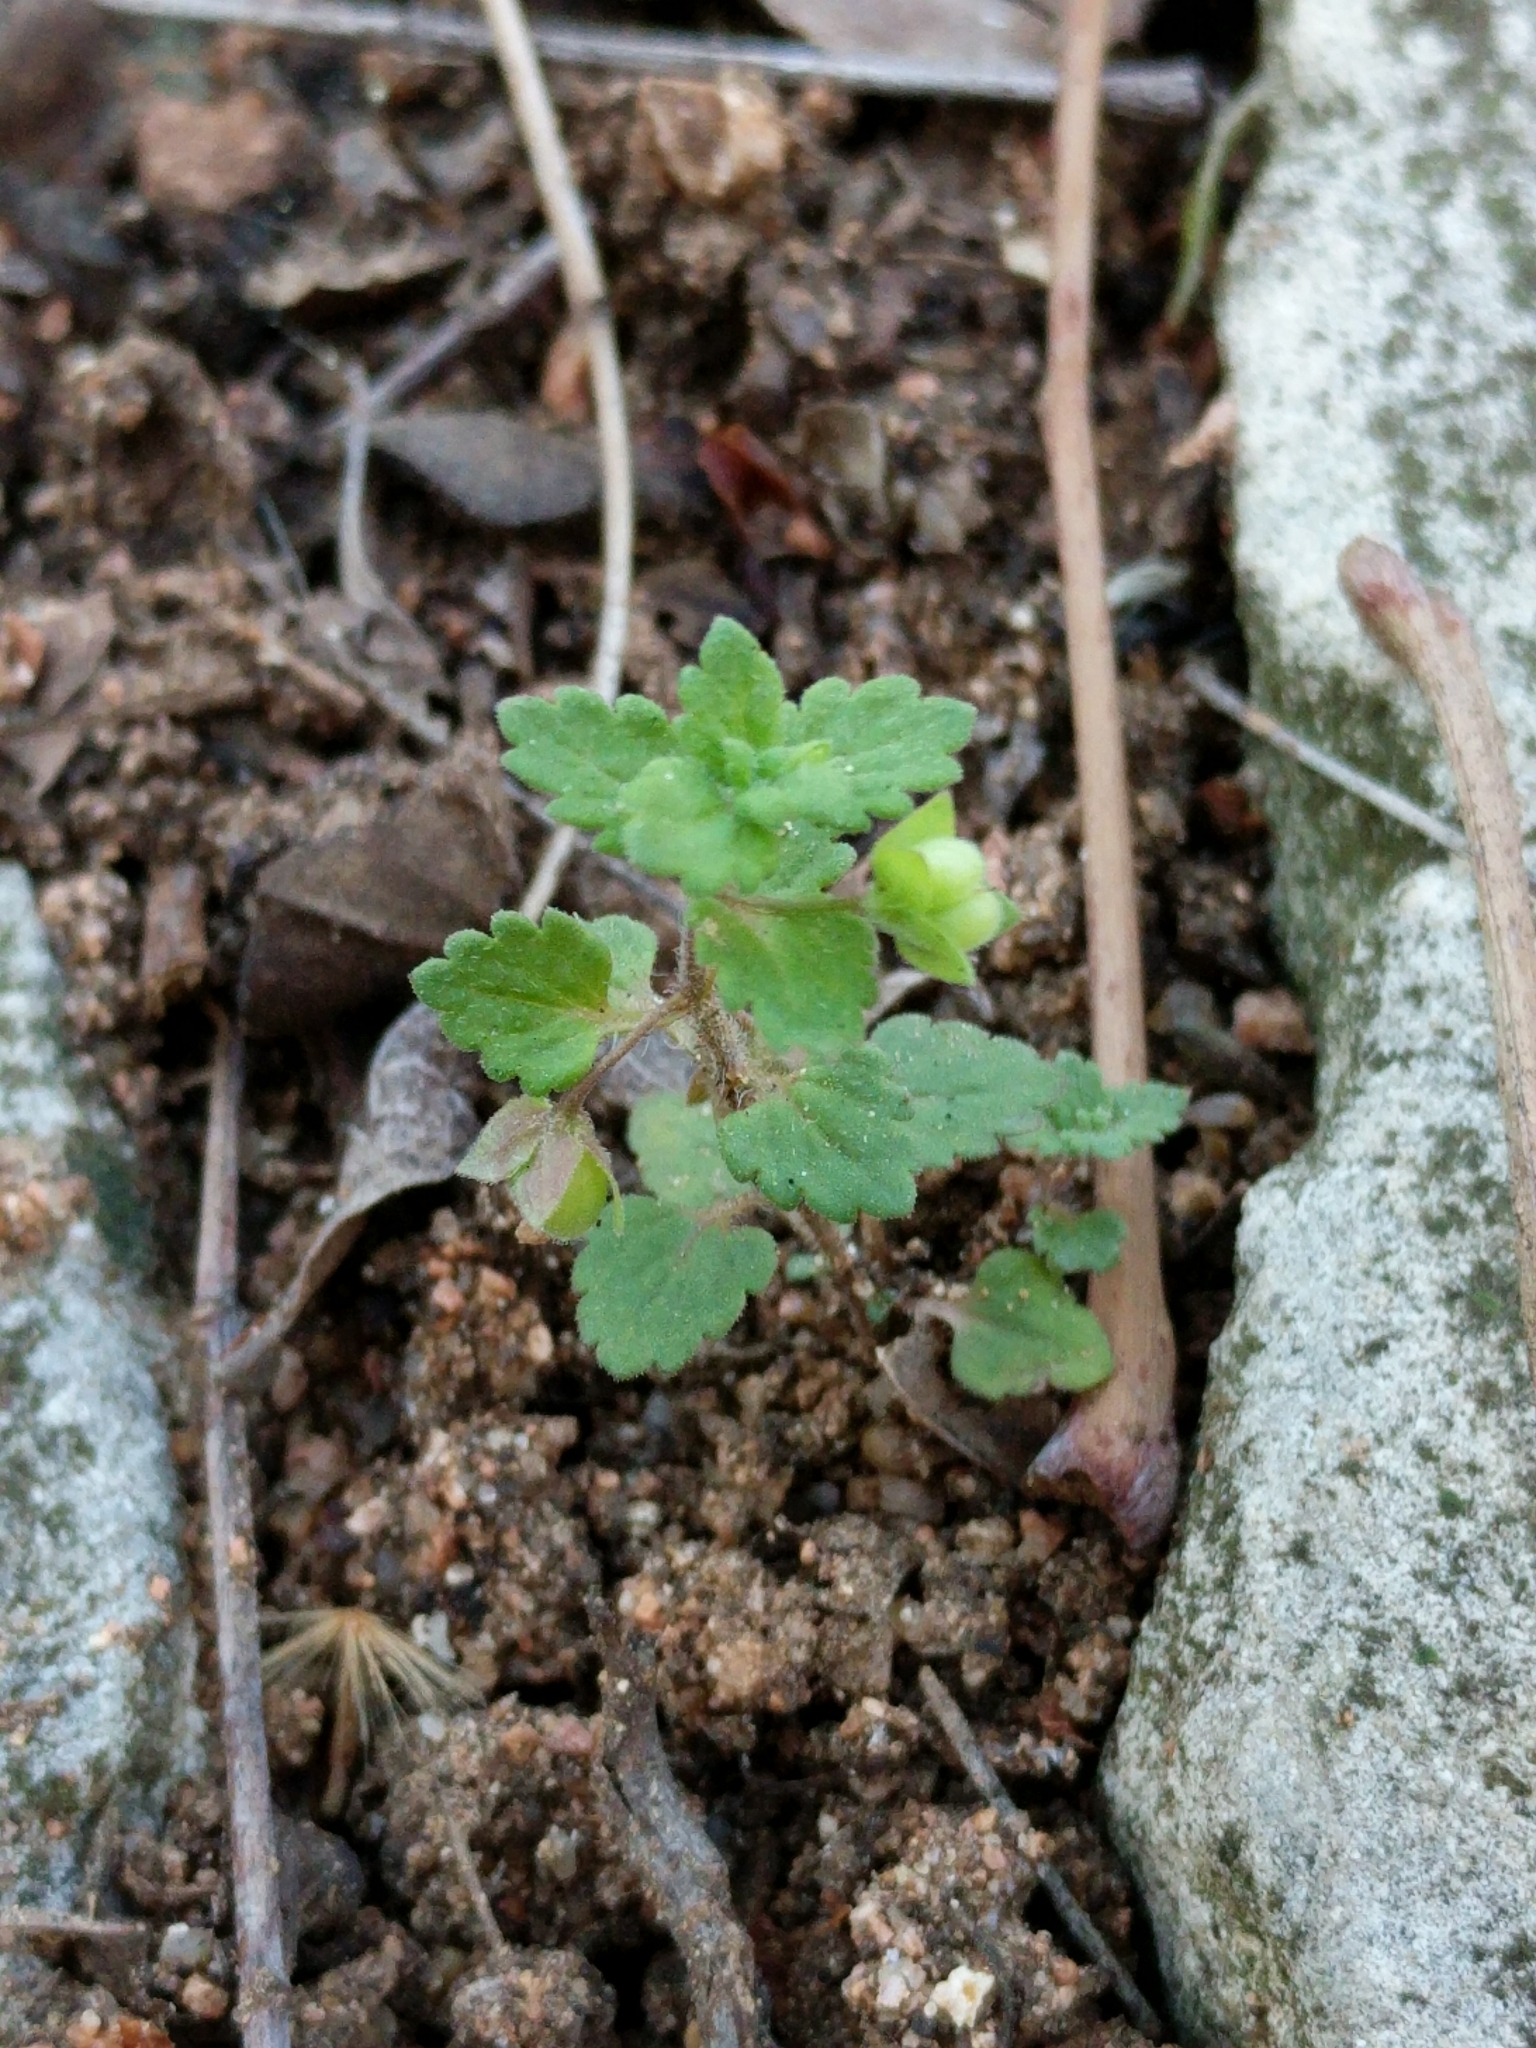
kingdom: Plantae
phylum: Tracheophyta
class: Magnoliopsida
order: Lamiales
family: Plantaginaceae
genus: Veronica
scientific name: Veronica polita
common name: Grey field-speedwell
